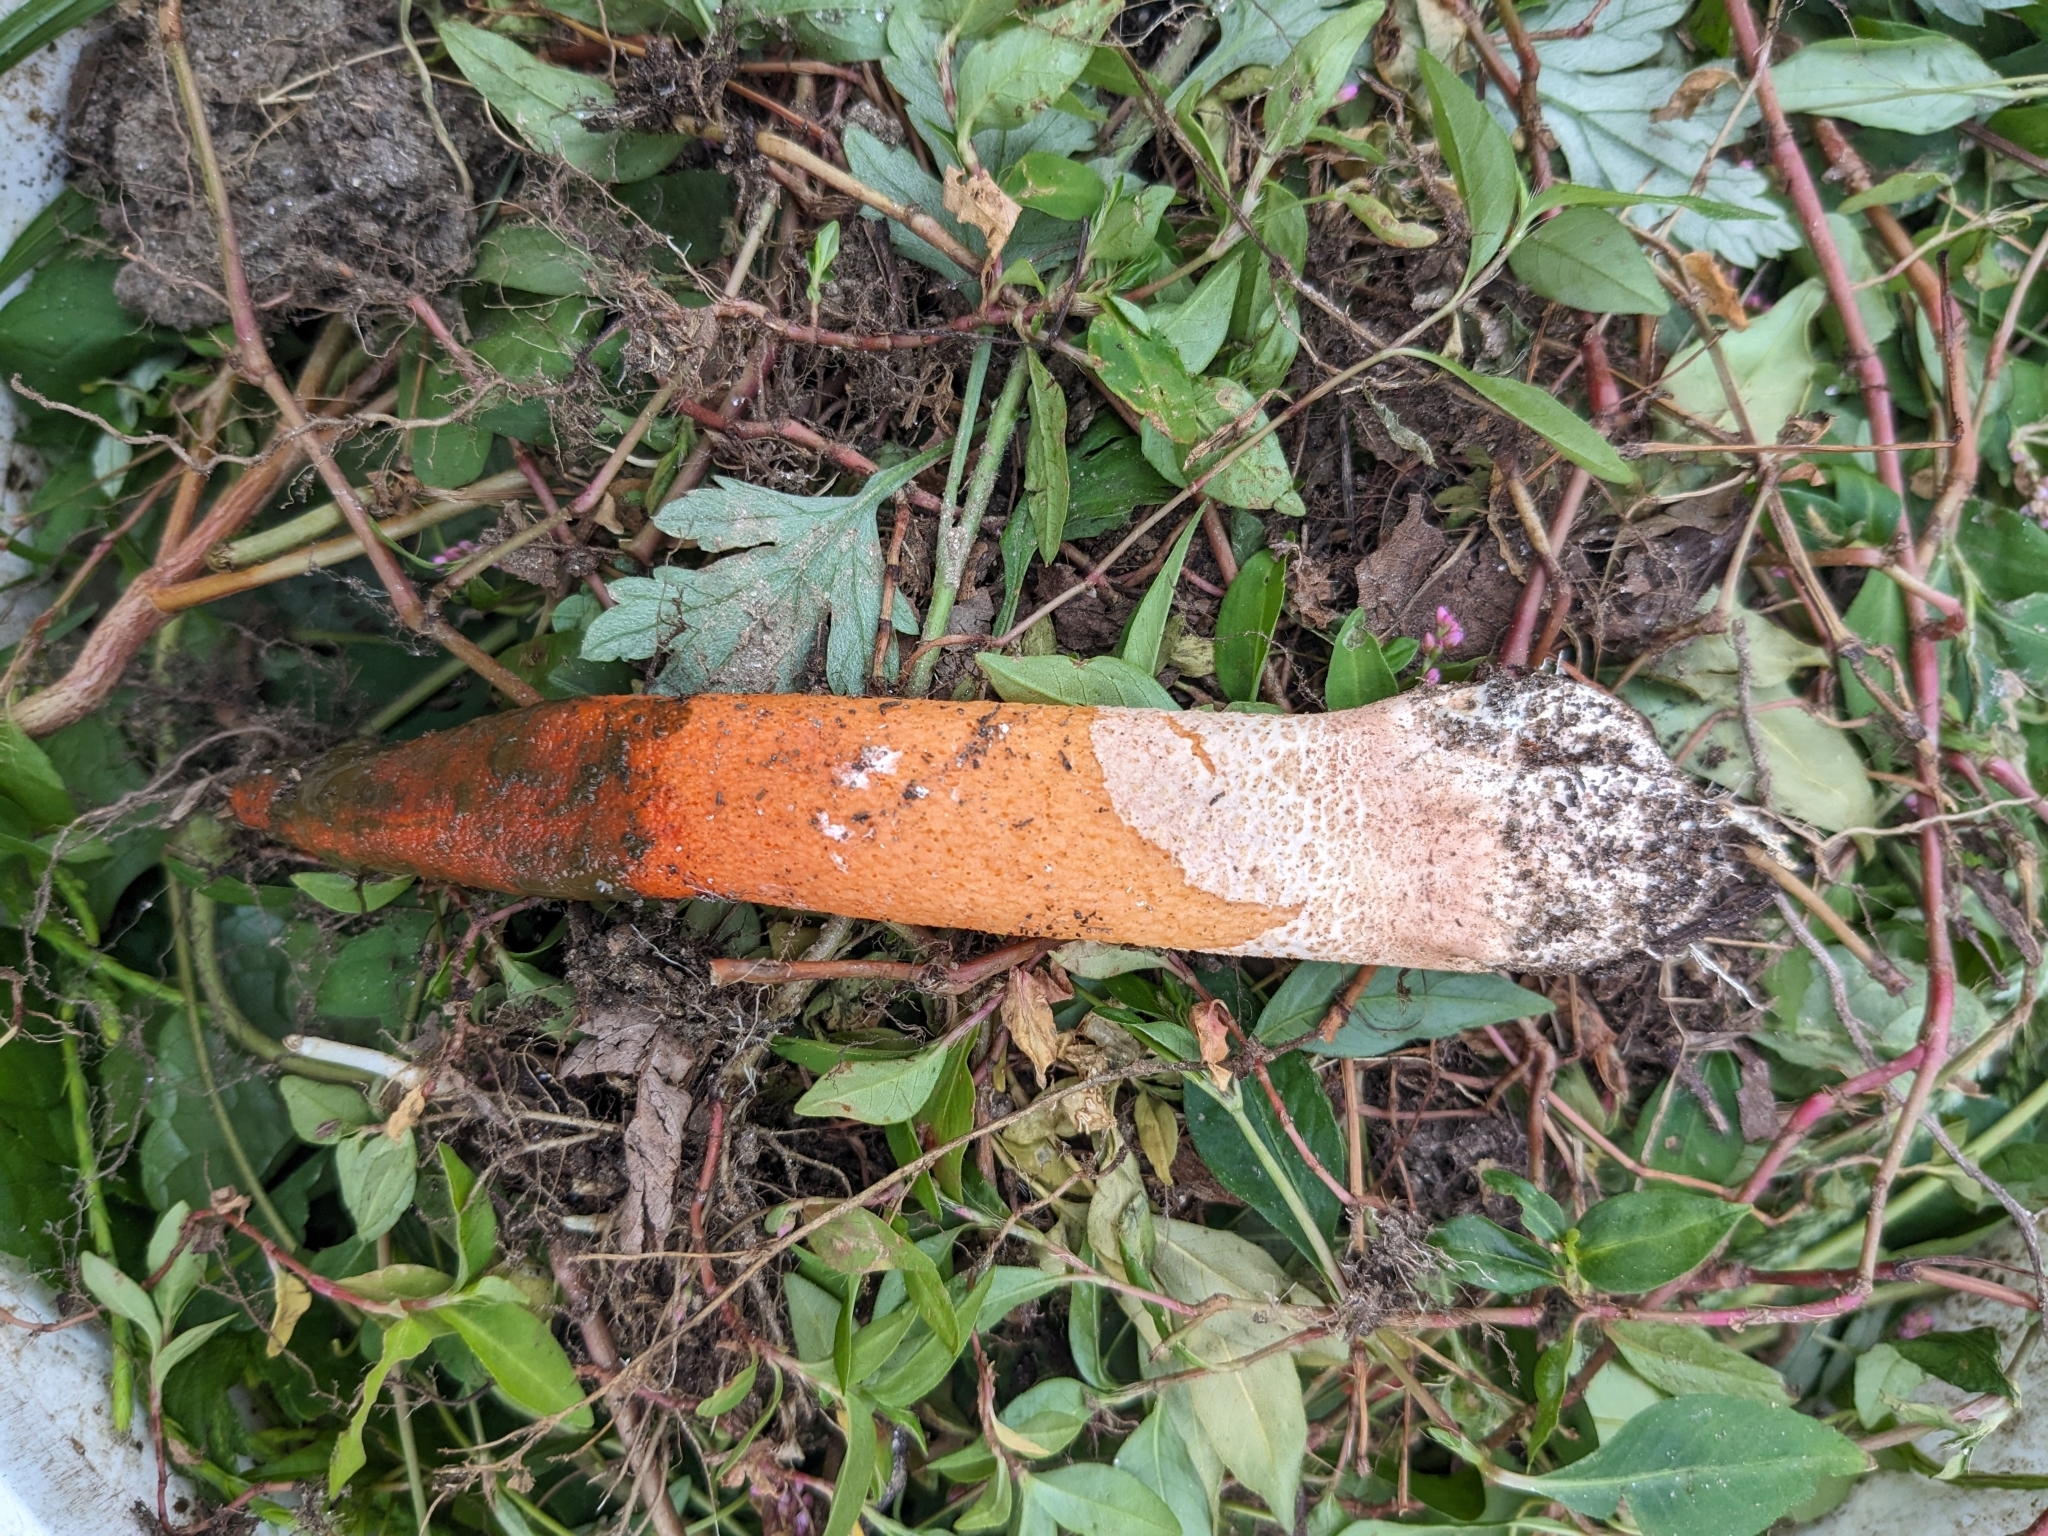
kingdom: Fungi
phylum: Basidiomycota
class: Agaricomycetes
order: Phallales
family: Phallaceae
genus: Mutinus
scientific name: Mutinus elegans
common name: Devil's dipstick
